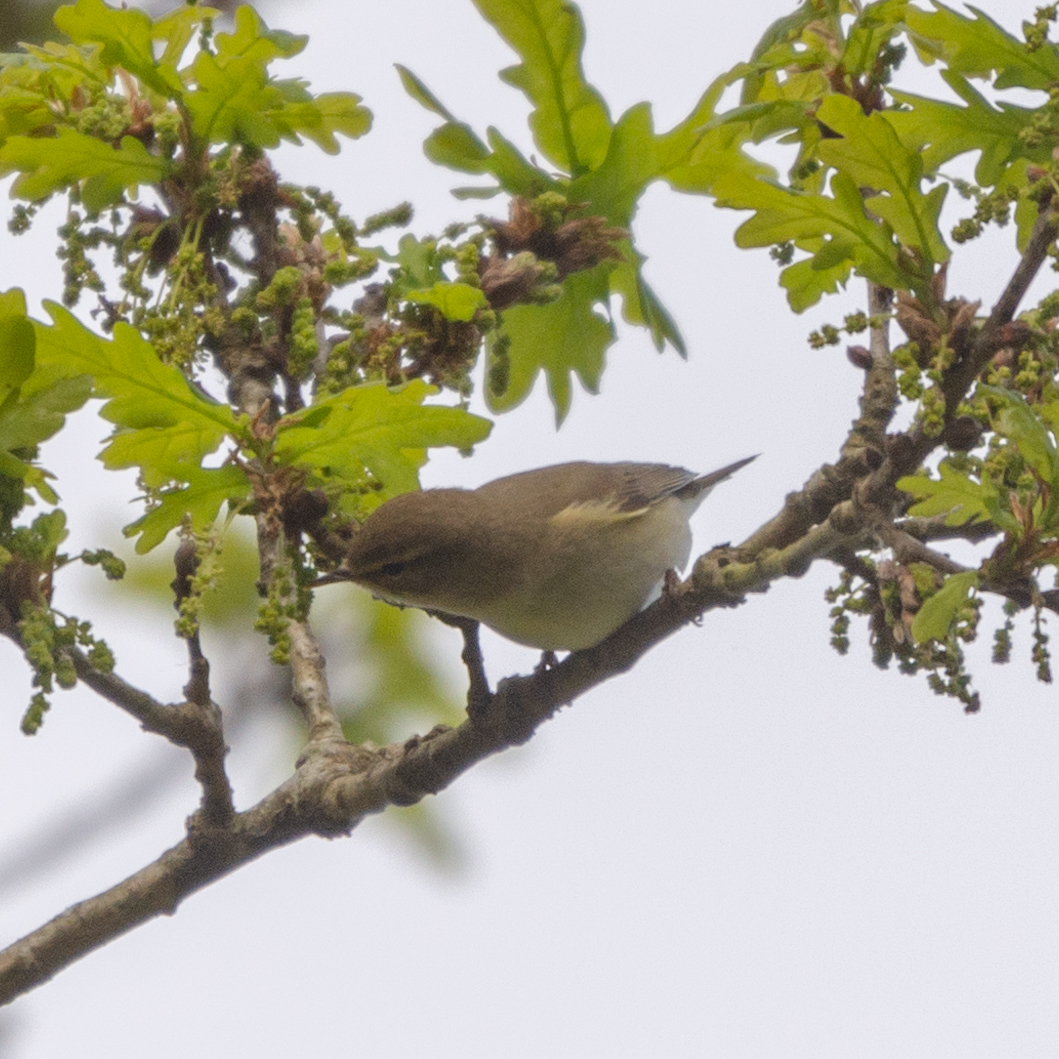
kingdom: Animalia
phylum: Chordata
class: Aves
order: Passeriformes
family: Phylloscopidae
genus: Phylloscopus
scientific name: Phylloscopus trochilus
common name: Willow warbler
